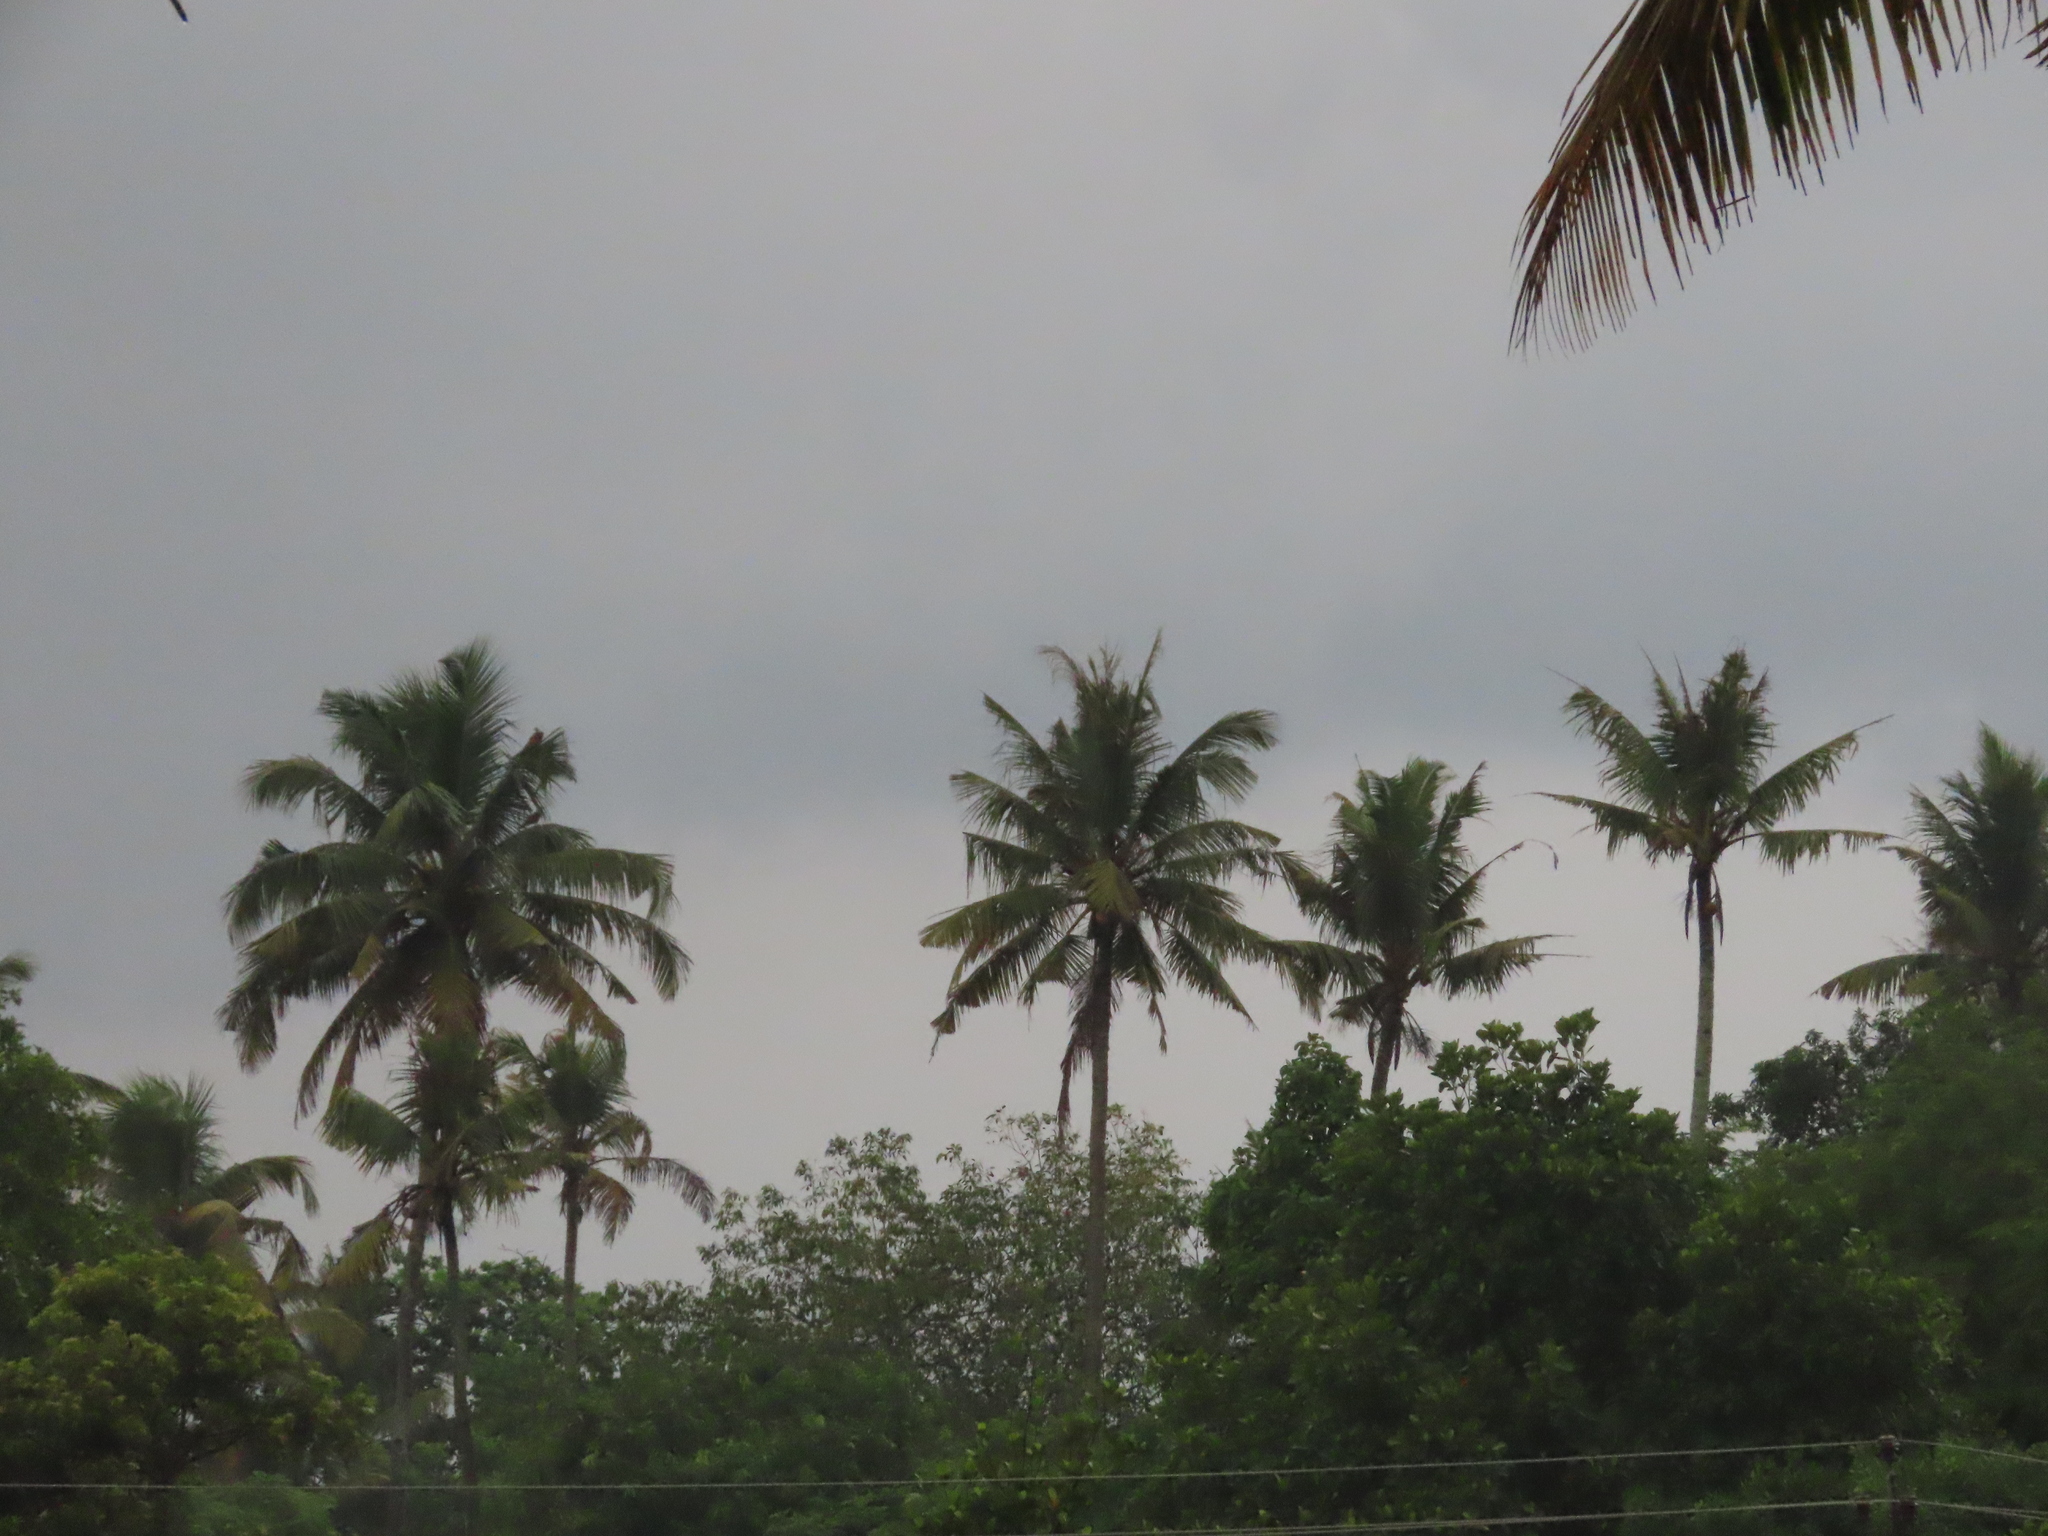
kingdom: Plantae
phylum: Tracheophyta
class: Liliopsida
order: Arecales
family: Arecaceae
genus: Cocos
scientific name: Cocos nucifera
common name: Coconut palm
